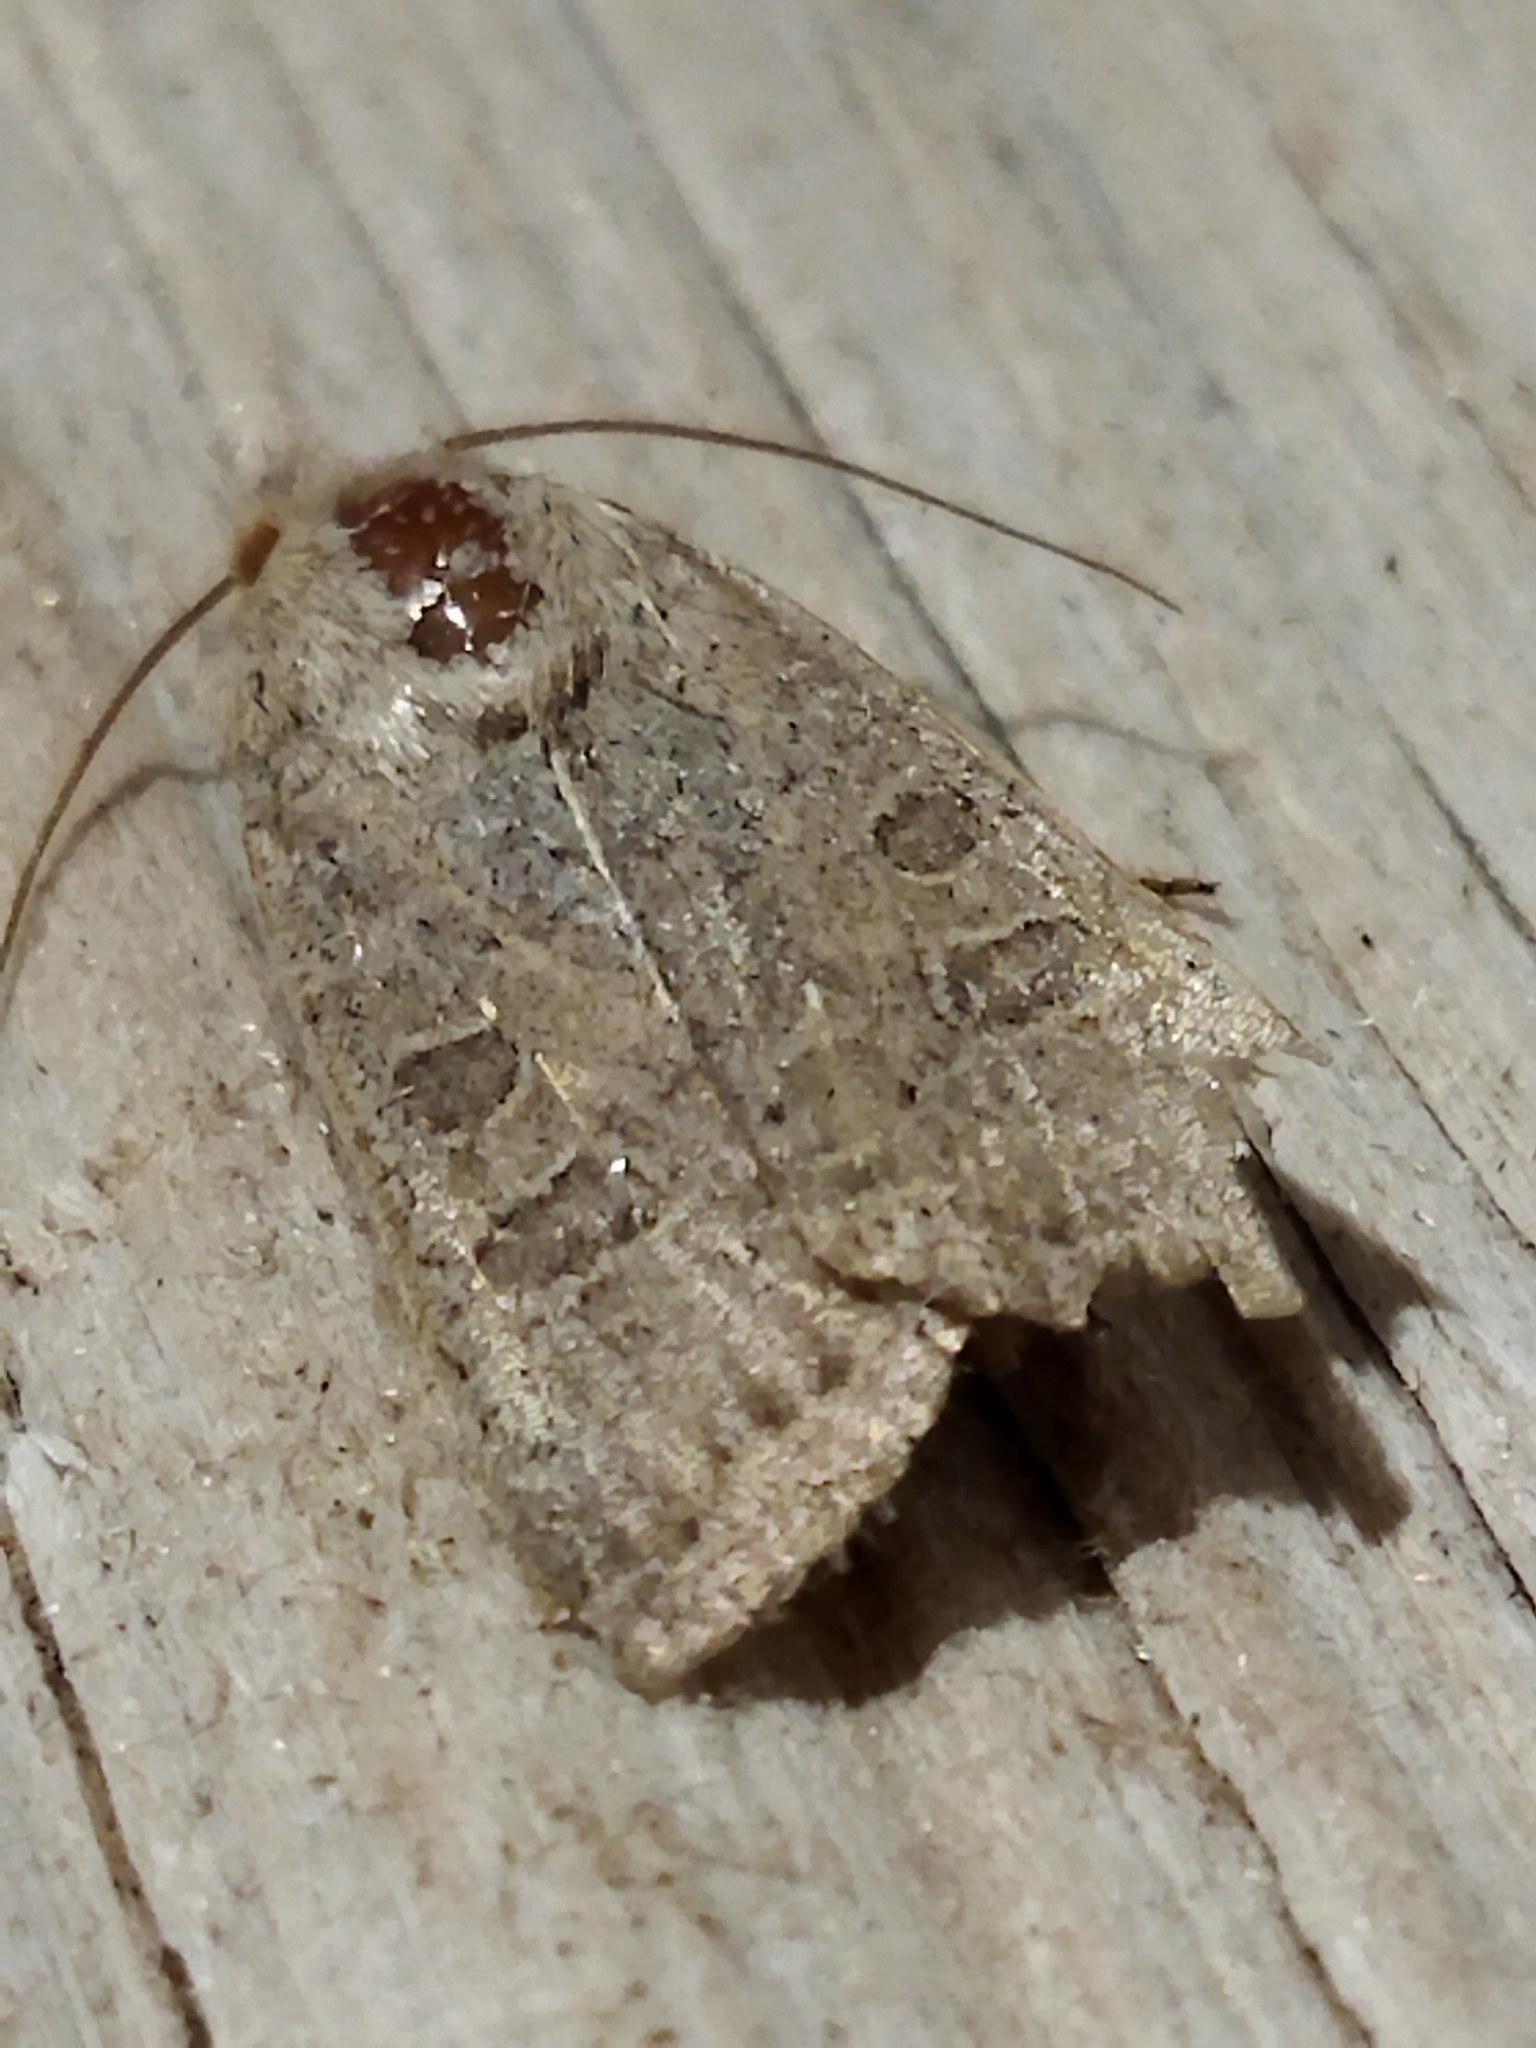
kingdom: Animalia
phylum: Arthropoda
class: Insecta
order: Lepidoptera
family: Noctuidae
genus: Hoplodrina
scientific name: Hoplodrina ambigua
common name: Vine's rustic
